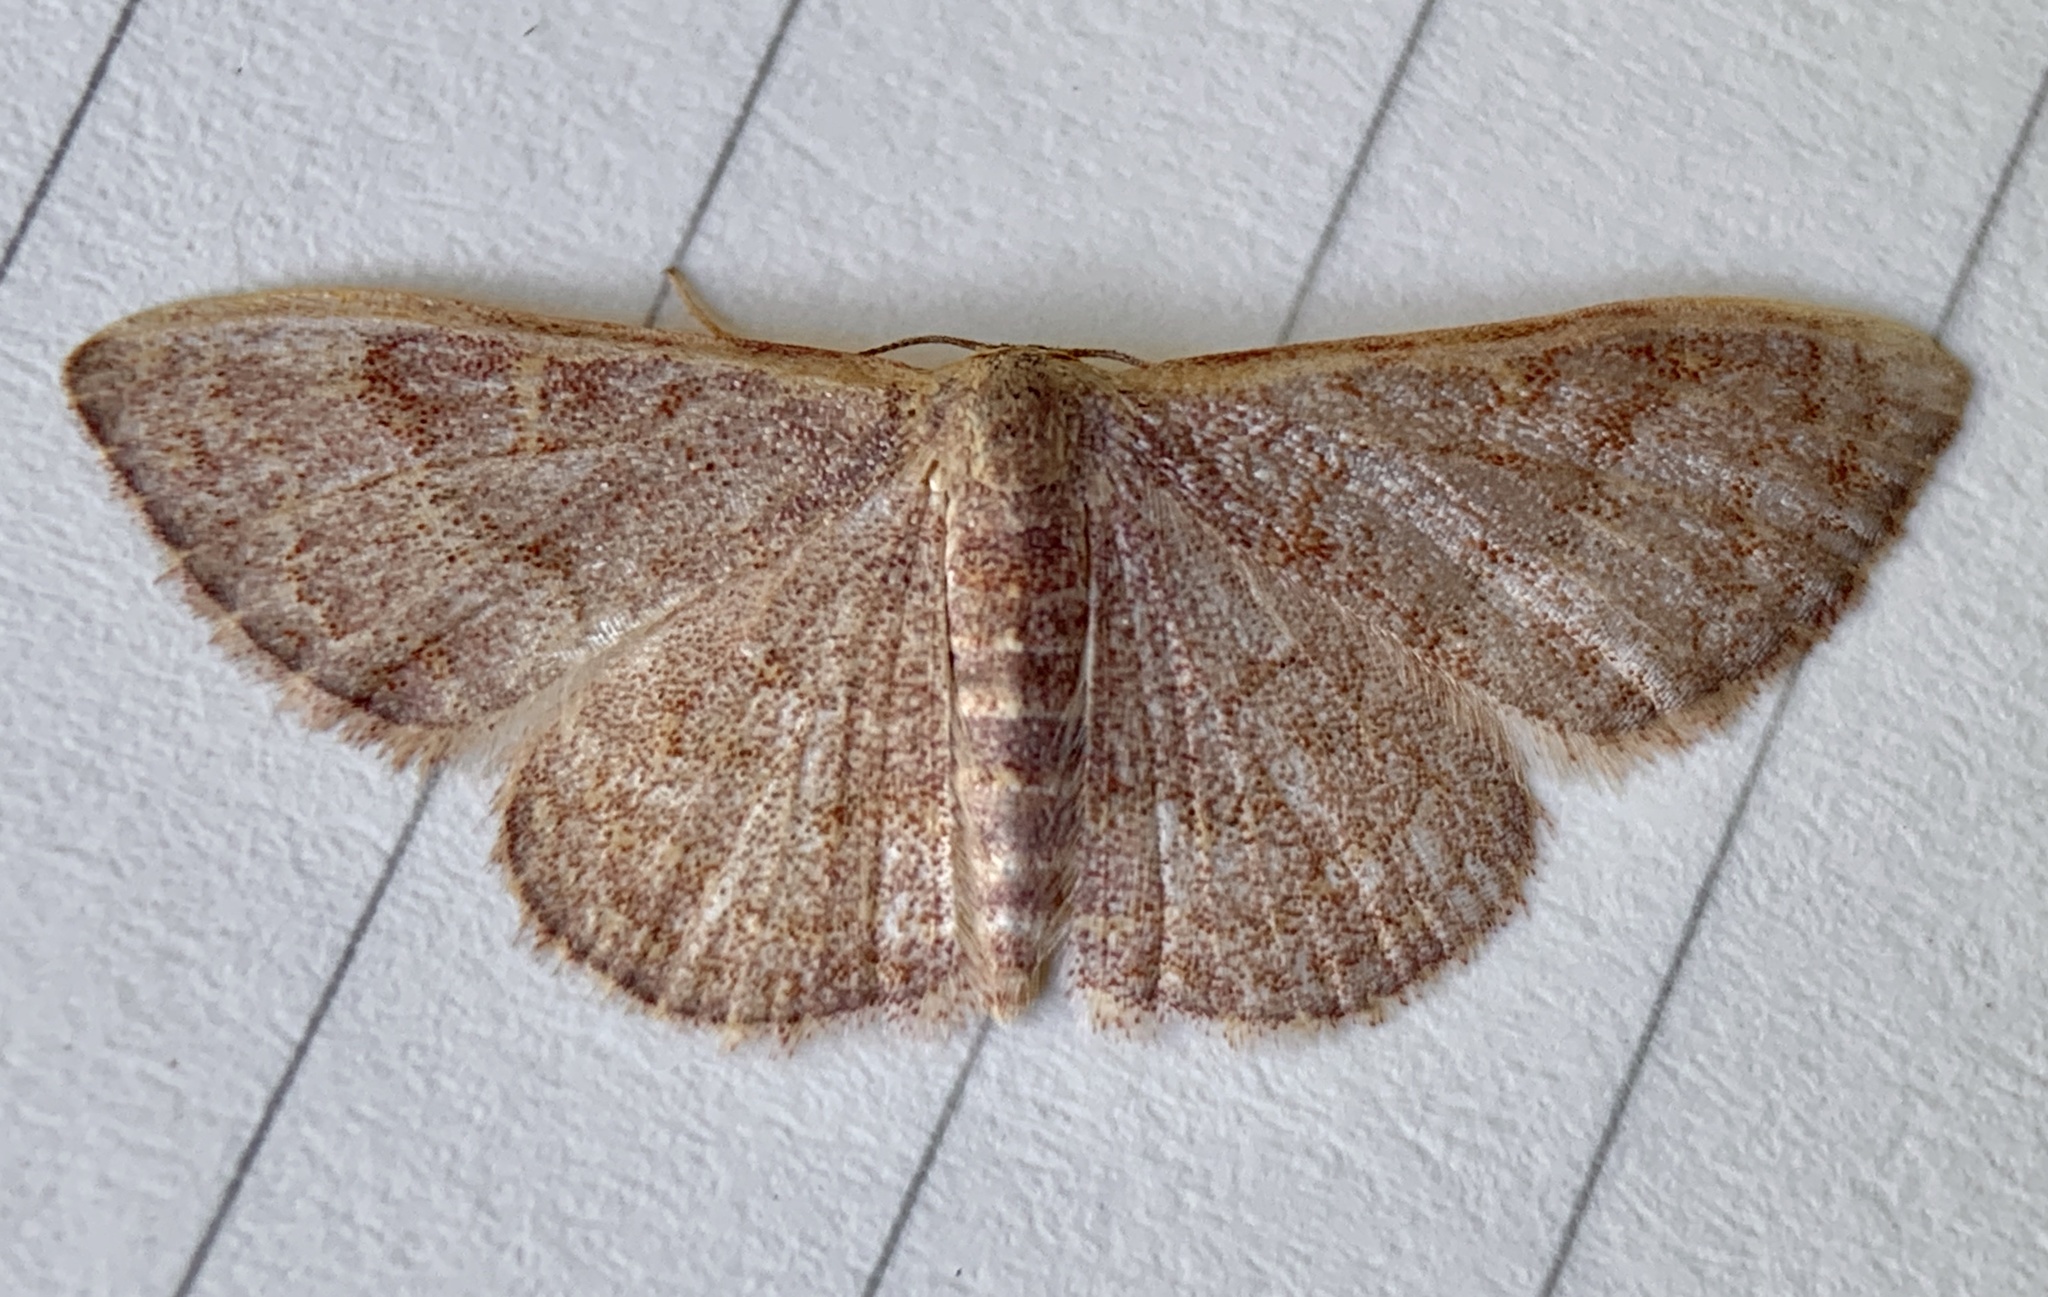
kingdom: Animalia
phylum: Arthropoda
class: Insecta
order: Lepidoptera
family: Geometridae
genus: Leptostales
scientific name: Leptostales pannaria
